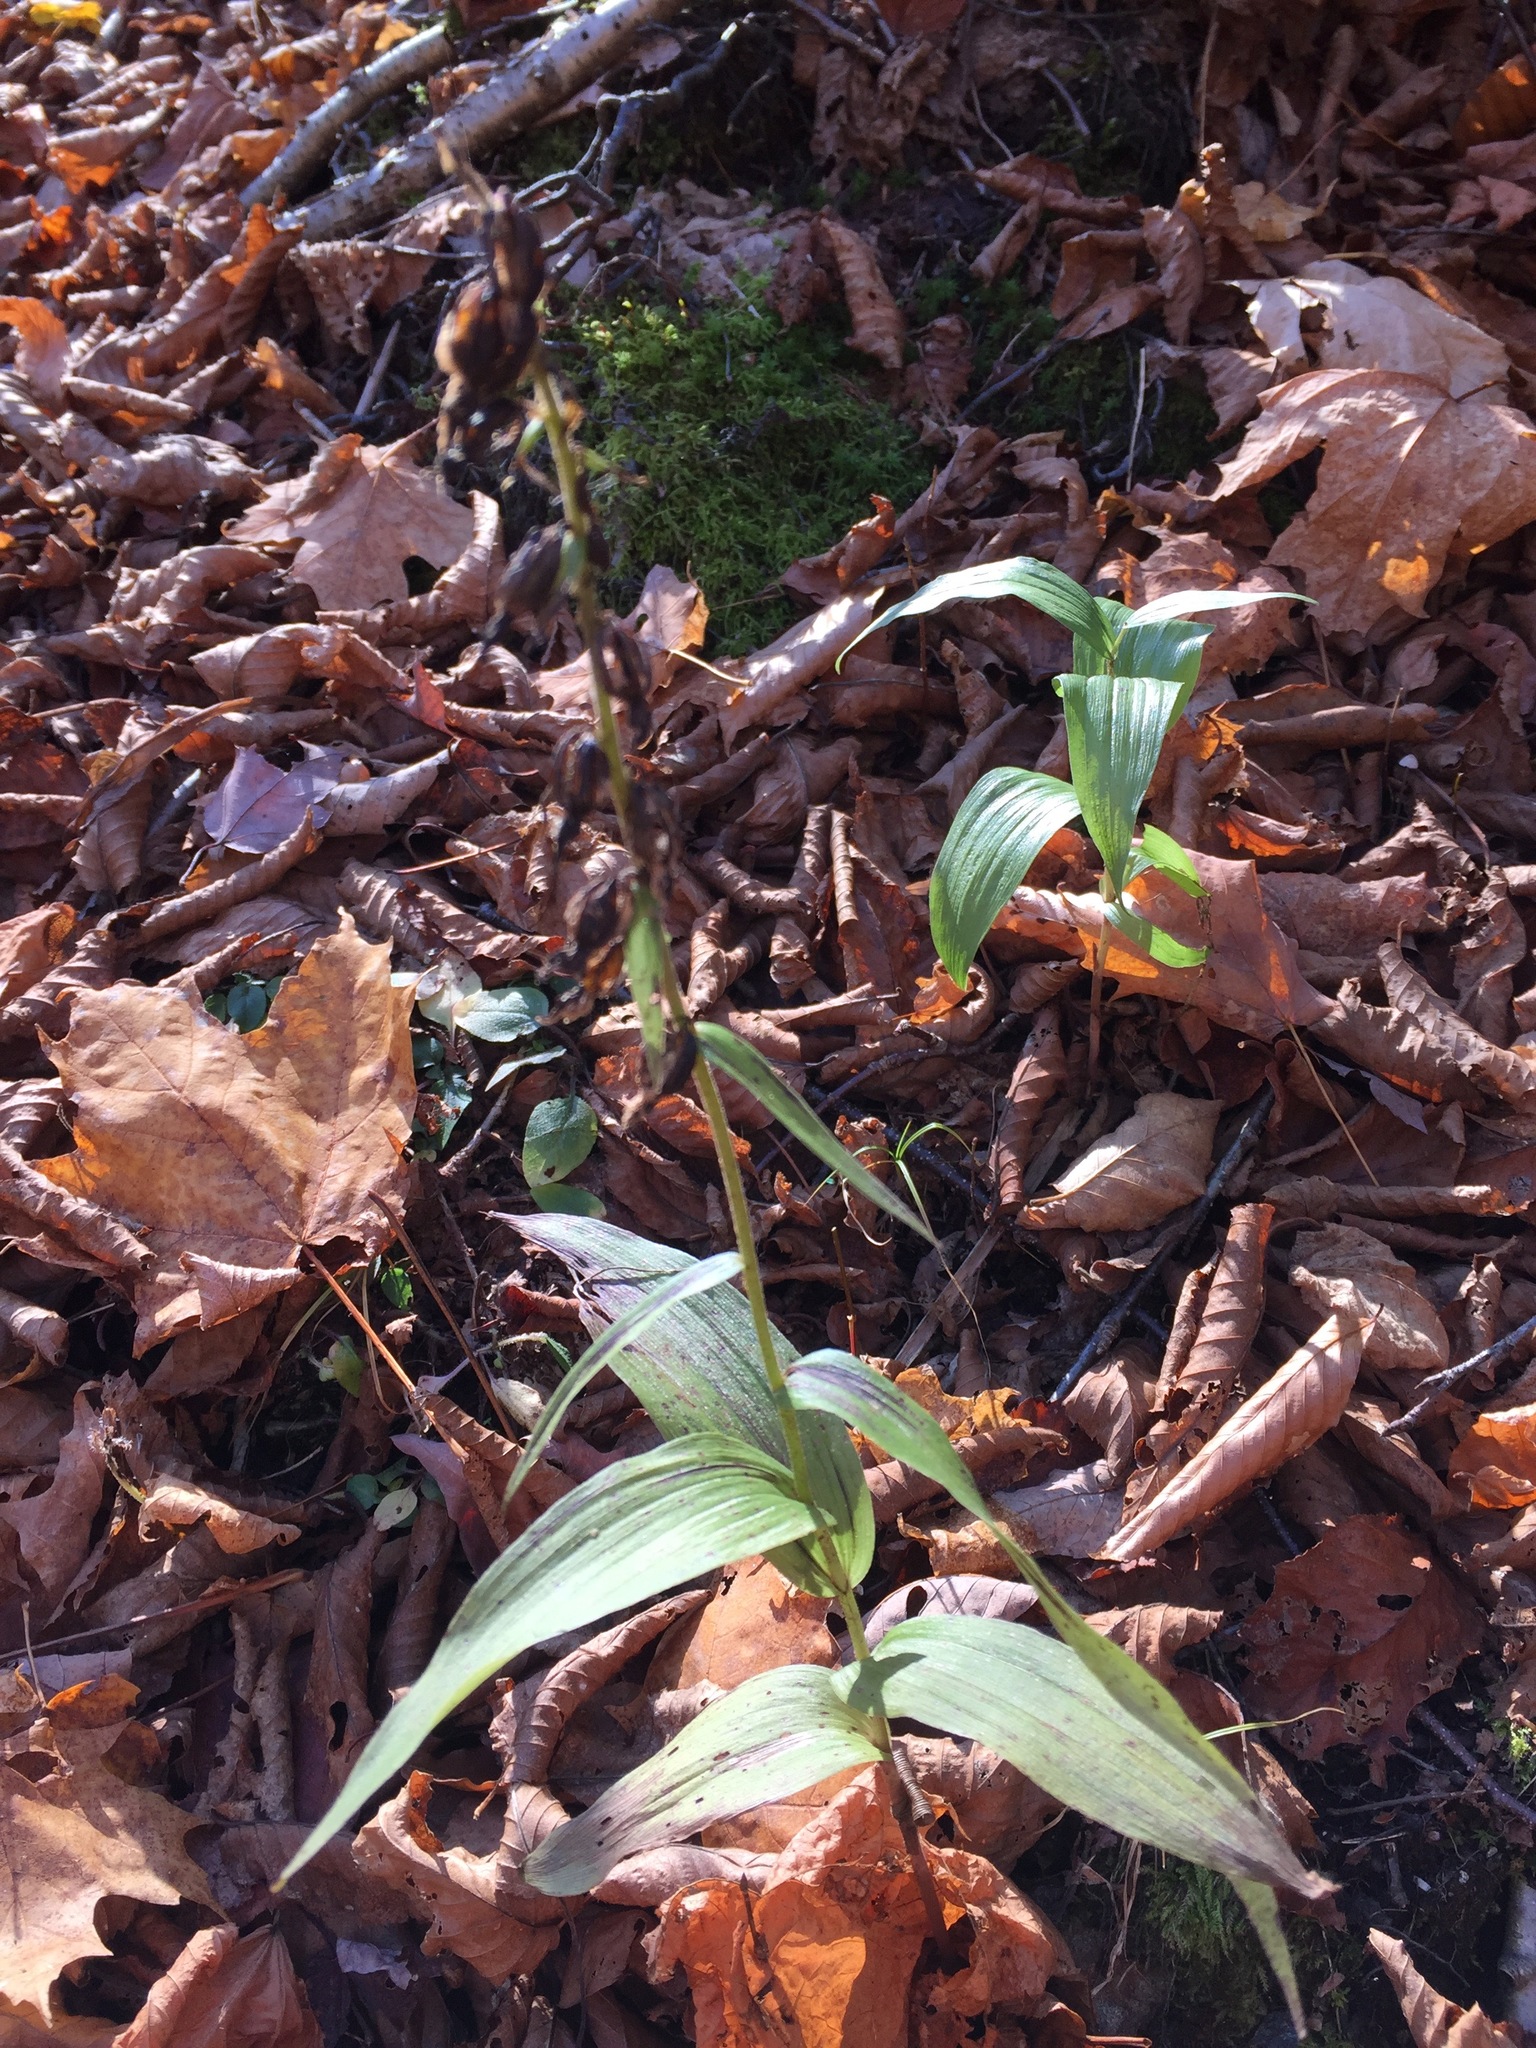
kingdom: Plantae
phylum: Tracheophyta
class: Liliopsida
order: Asparagales
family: Orchidaceae
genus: Epipactis
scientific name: Epipactis helleborine
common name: Broad-leaved helleborine
